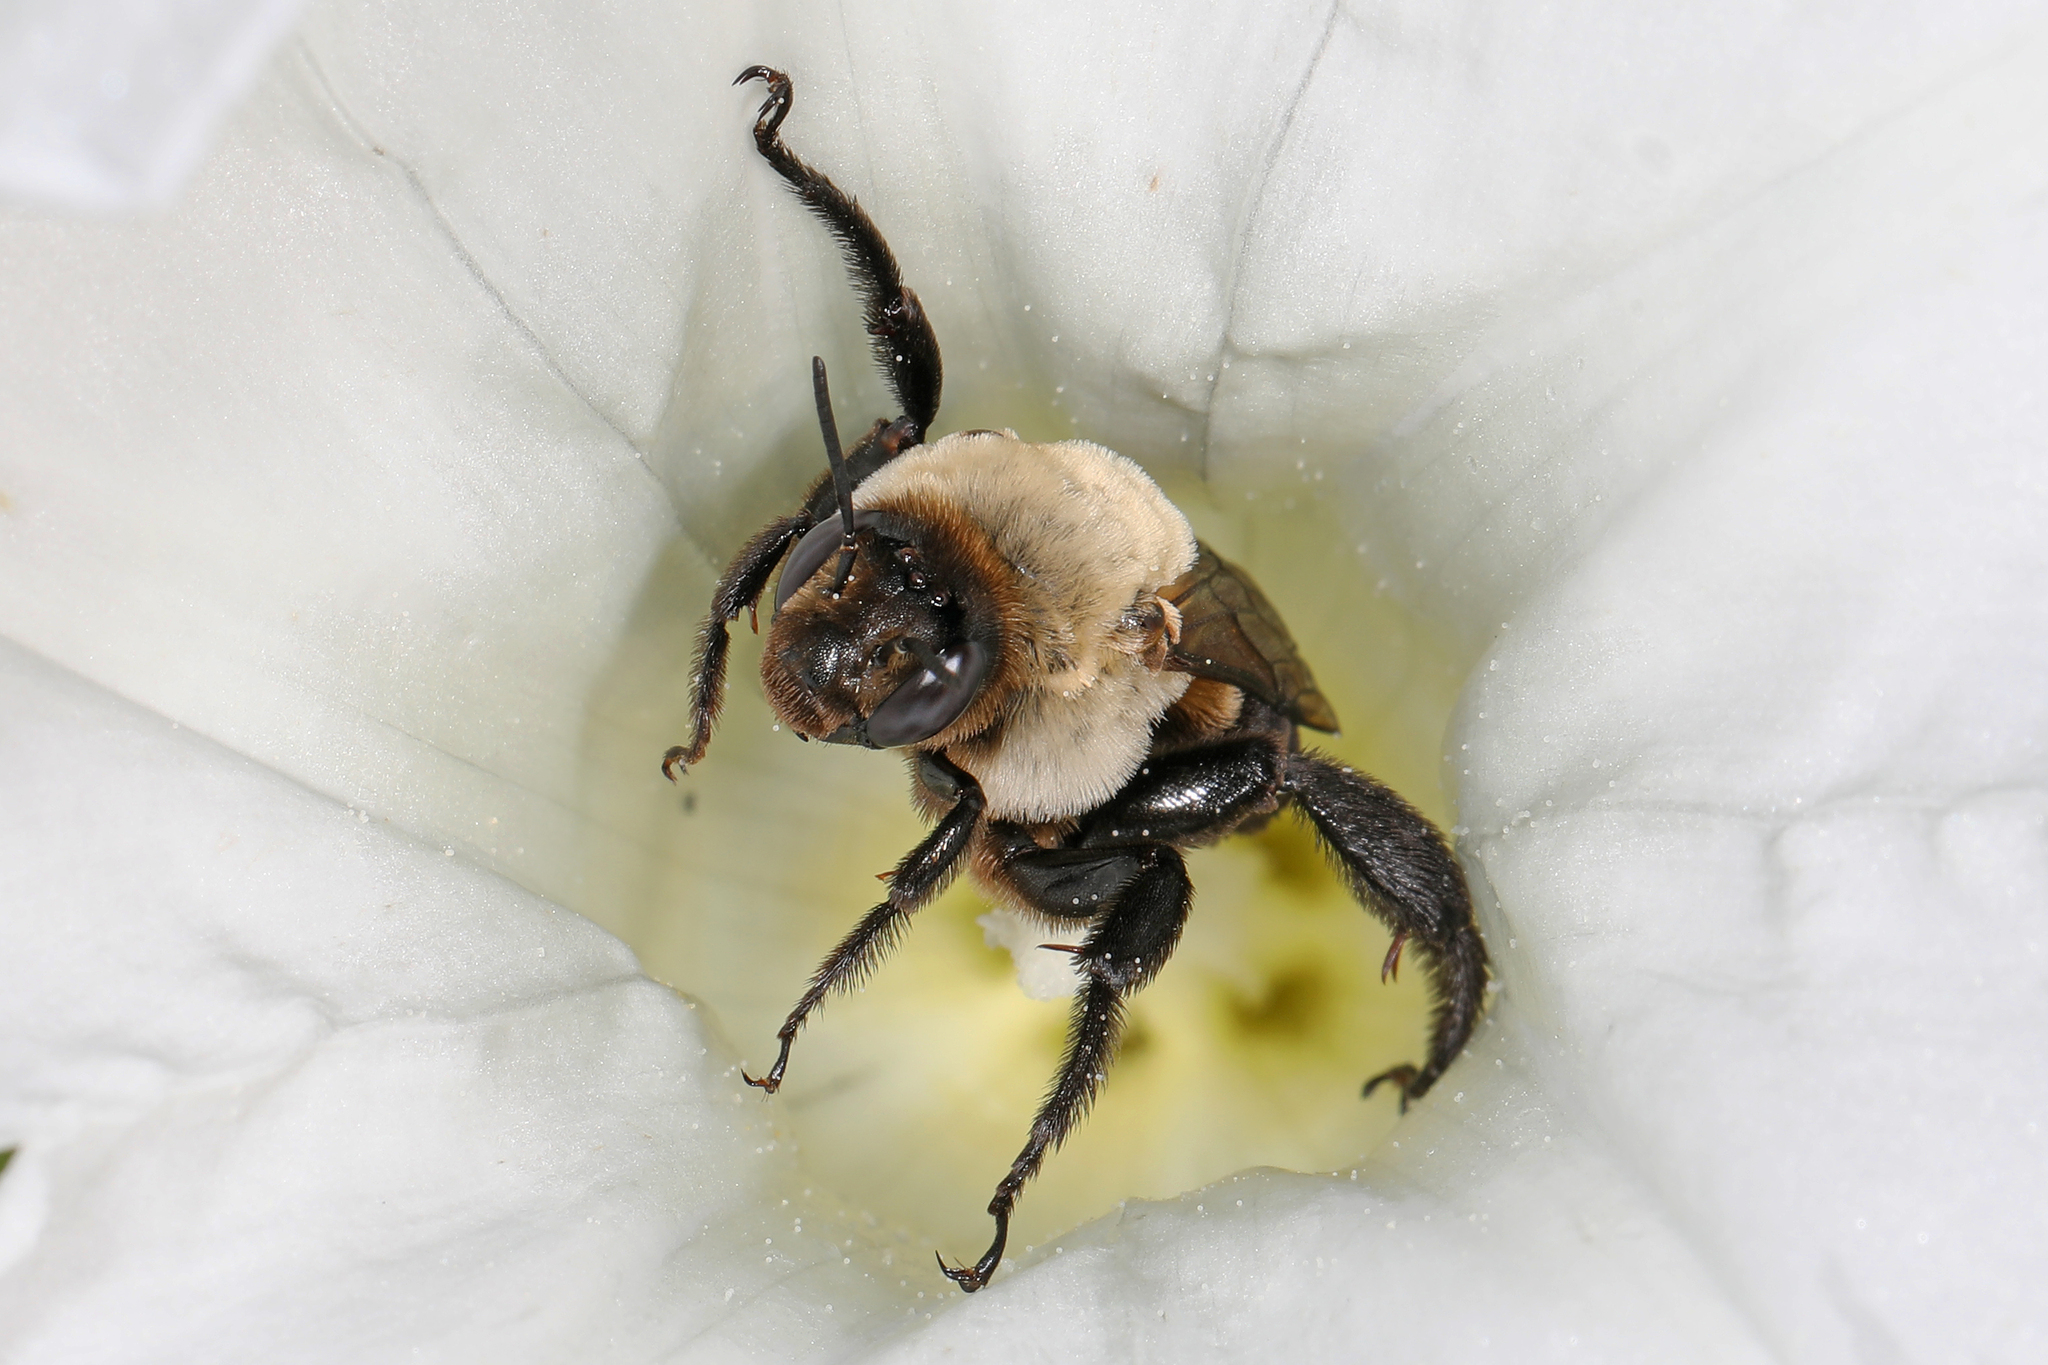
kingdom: Animalia
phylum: Arthropoda
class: Insecta
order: Hymenoptera
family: Apidae
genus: Ptilothrix
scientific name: Ptilothrix bombiformis
